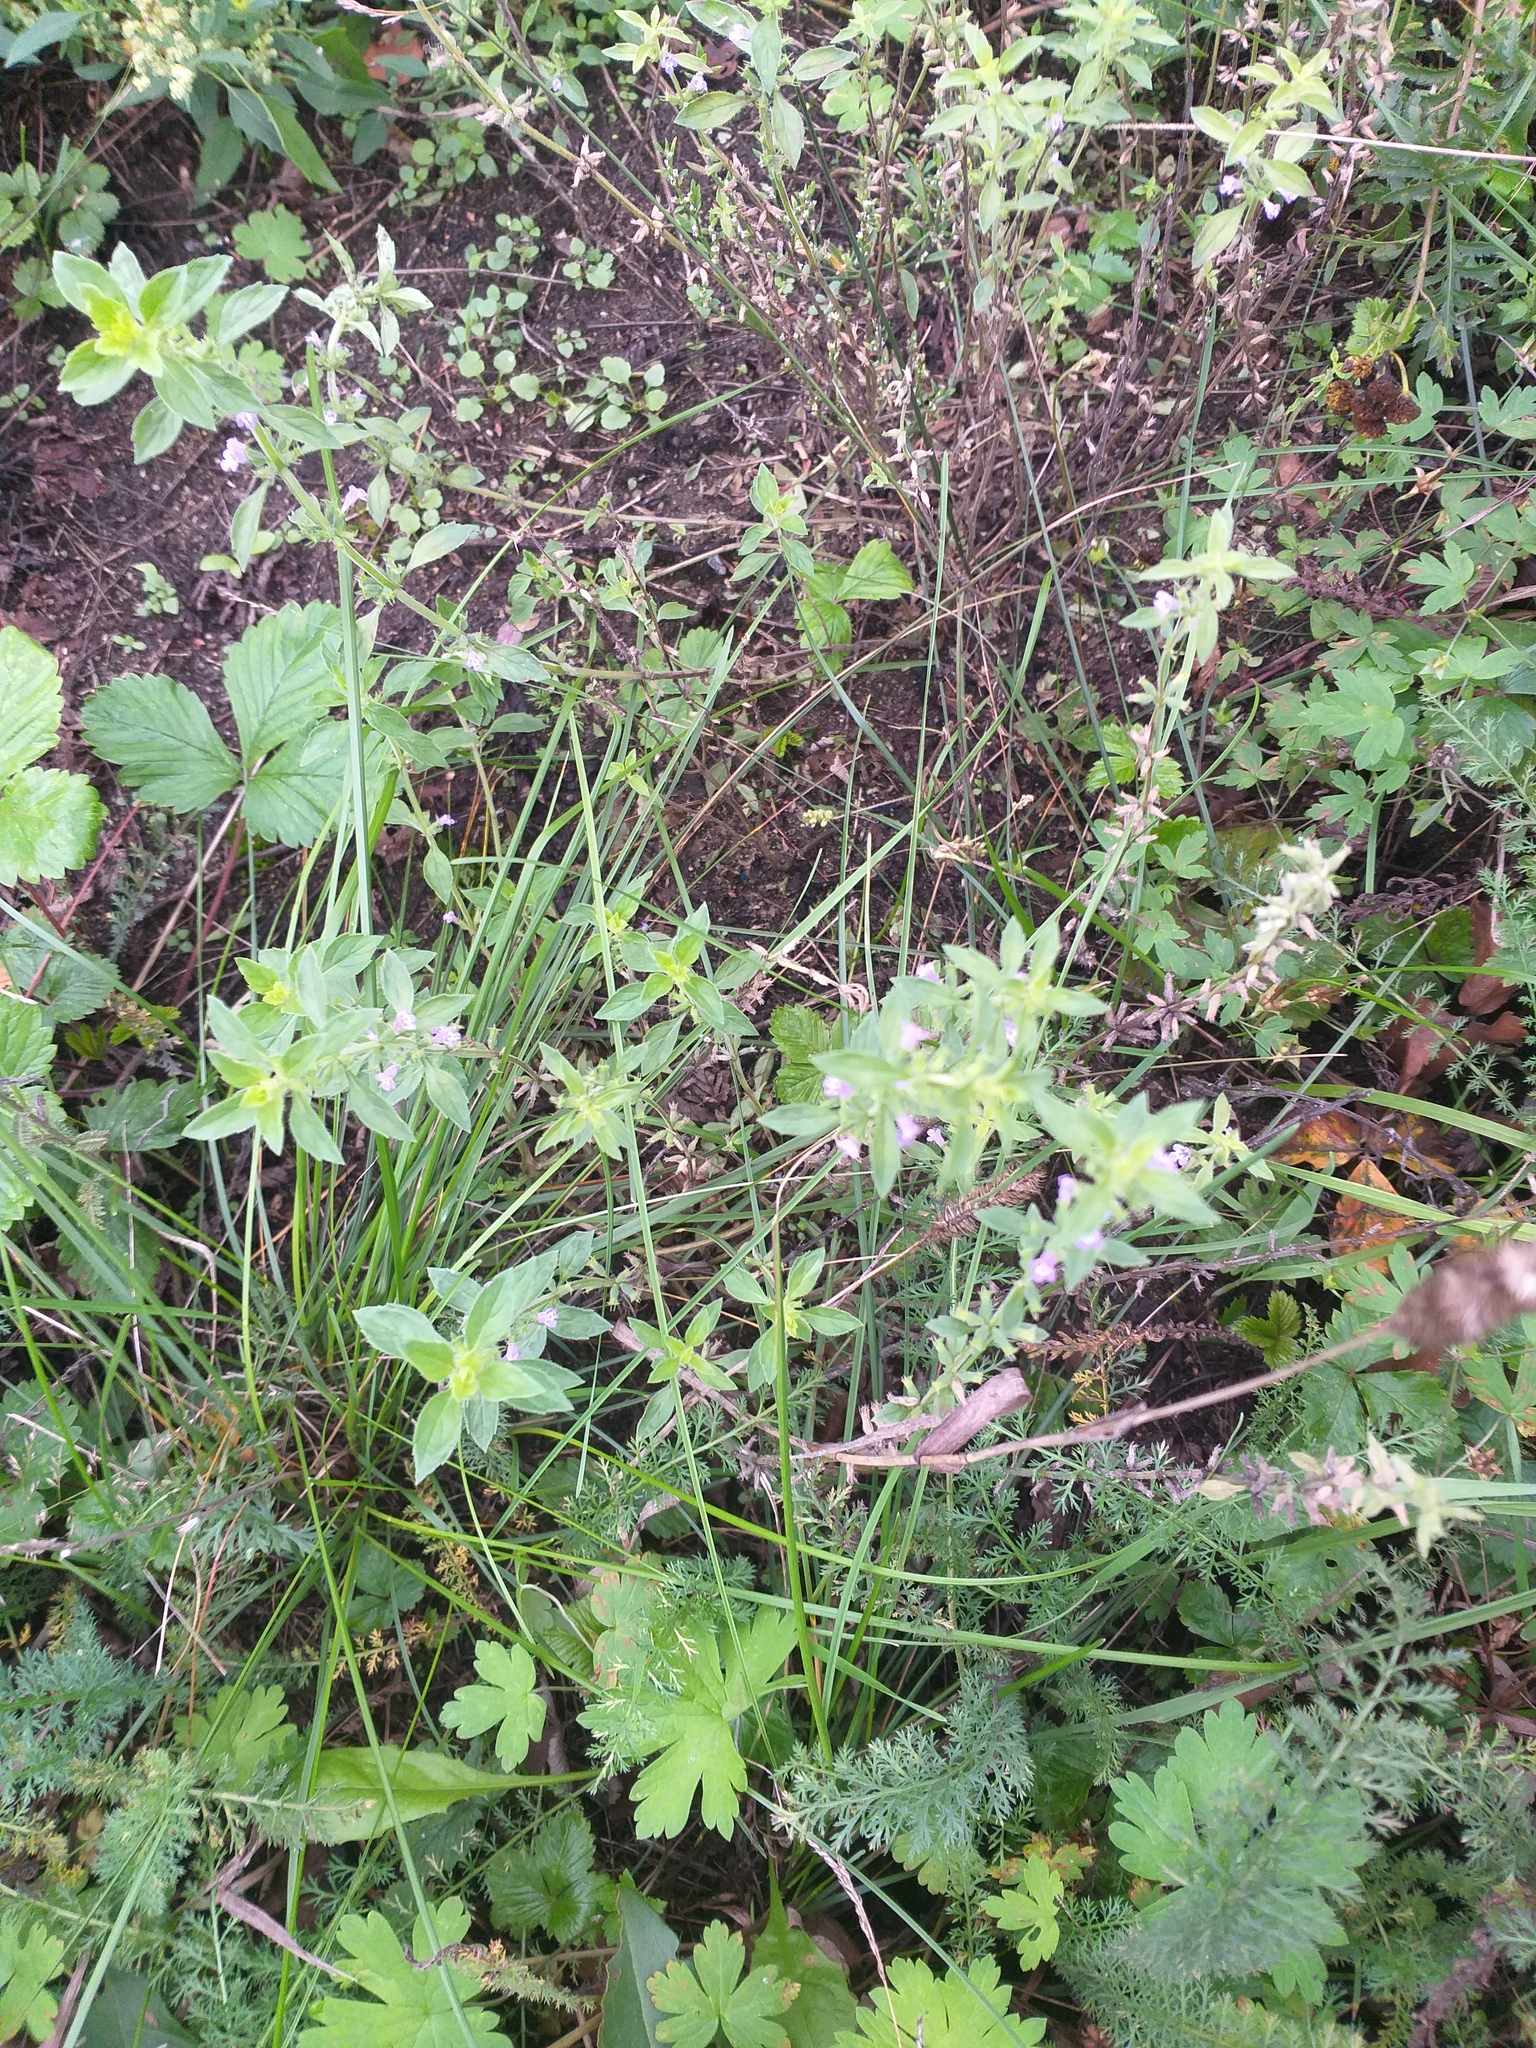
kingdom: Plantae
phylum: Tracheophyta
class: Magnoliopsida
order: Lamiales
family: Lamiaceae
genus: Clinopodium
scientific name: Clinopodium acinos
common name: Basil thyme
